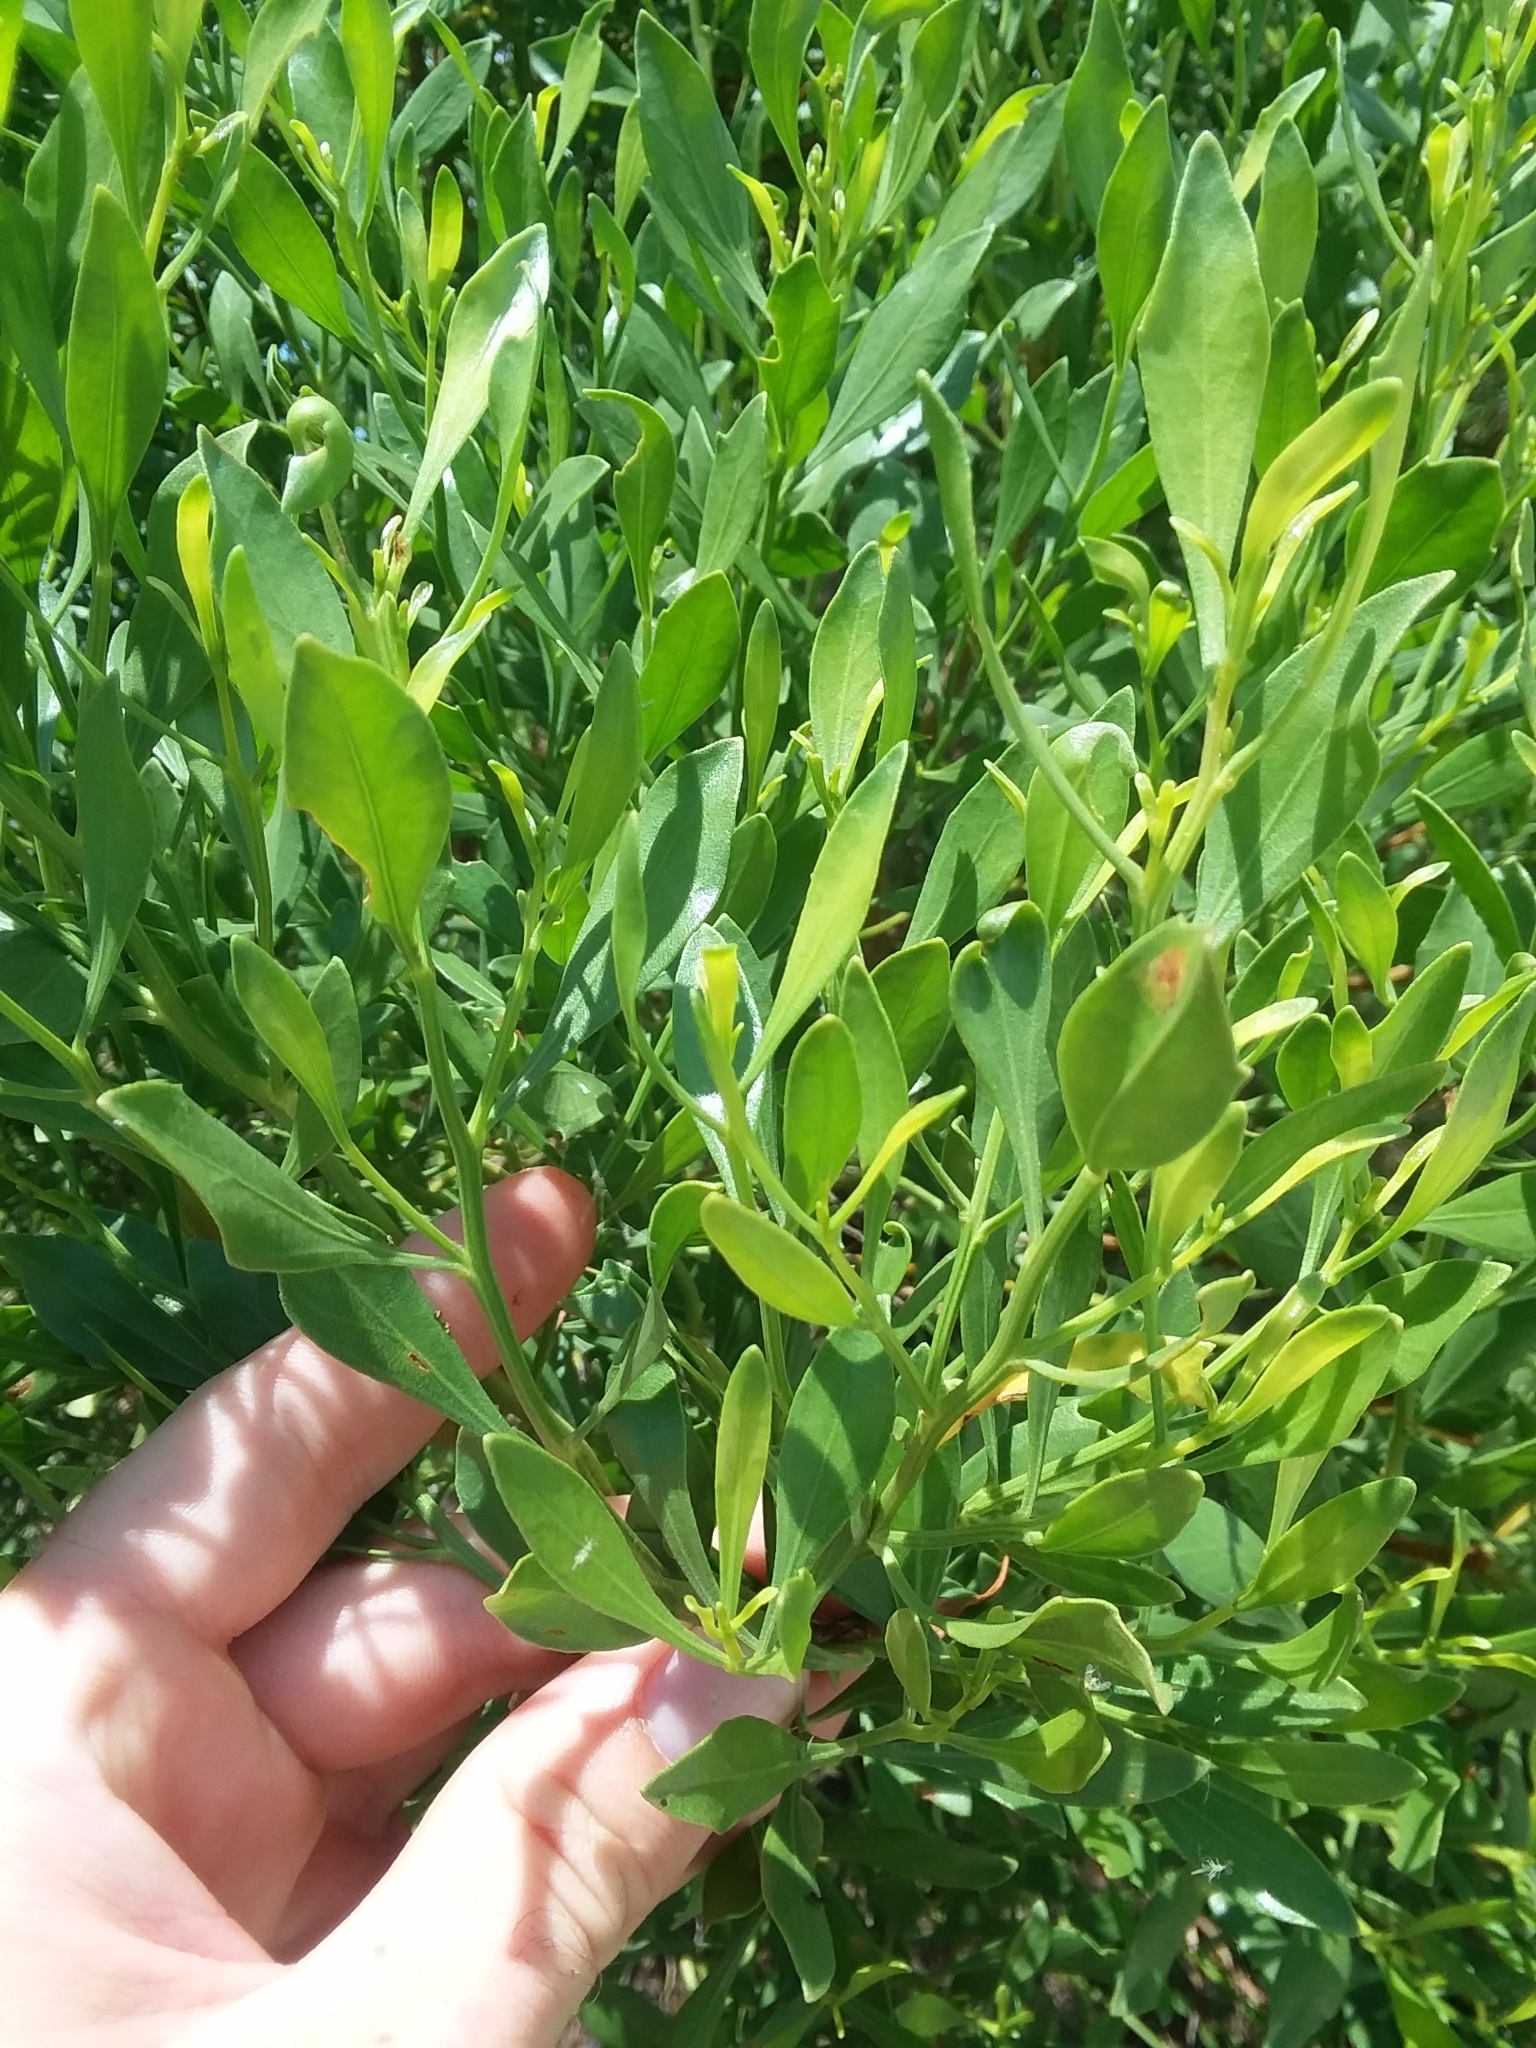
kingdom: Plantae
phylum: Tracheophyta
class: Magnoliopsida
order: Asterales
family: Asteraceae
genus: Baccharis
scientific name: Baccharis halimifolia
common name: Eastern baccharis
